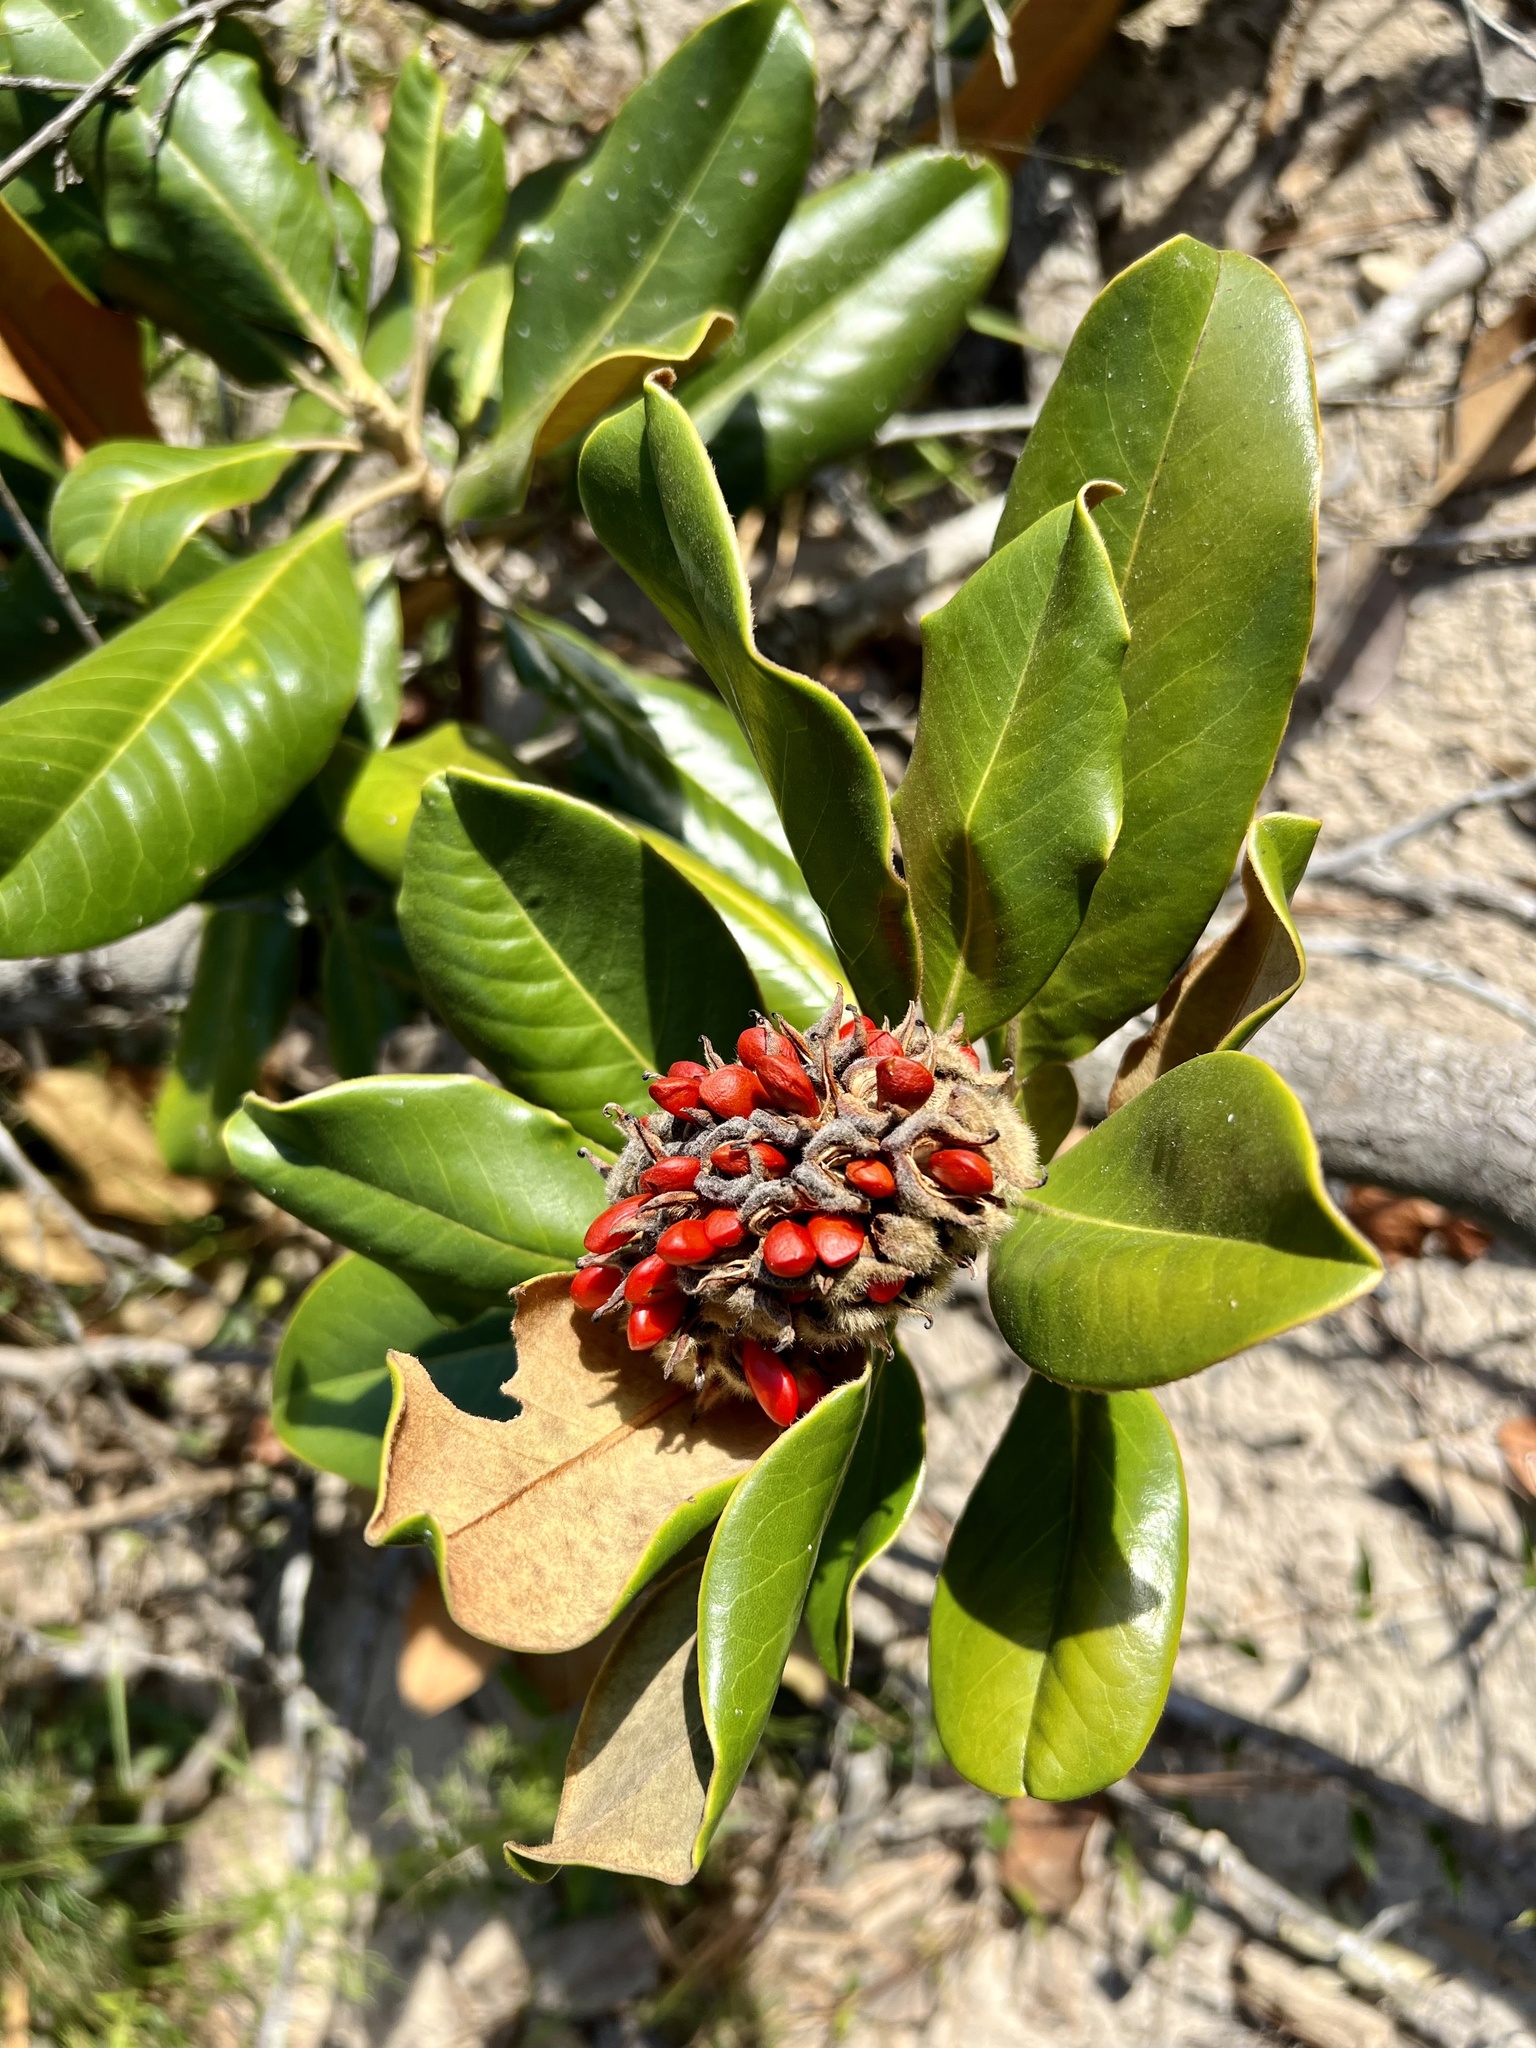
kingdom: Plantae
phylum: Tracheophyta
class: Magnoliopsida
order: Magnoliales
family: Magnoliaceae
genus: Magnolia
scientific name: Magnolia grandiflora
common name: Southern magnolia
